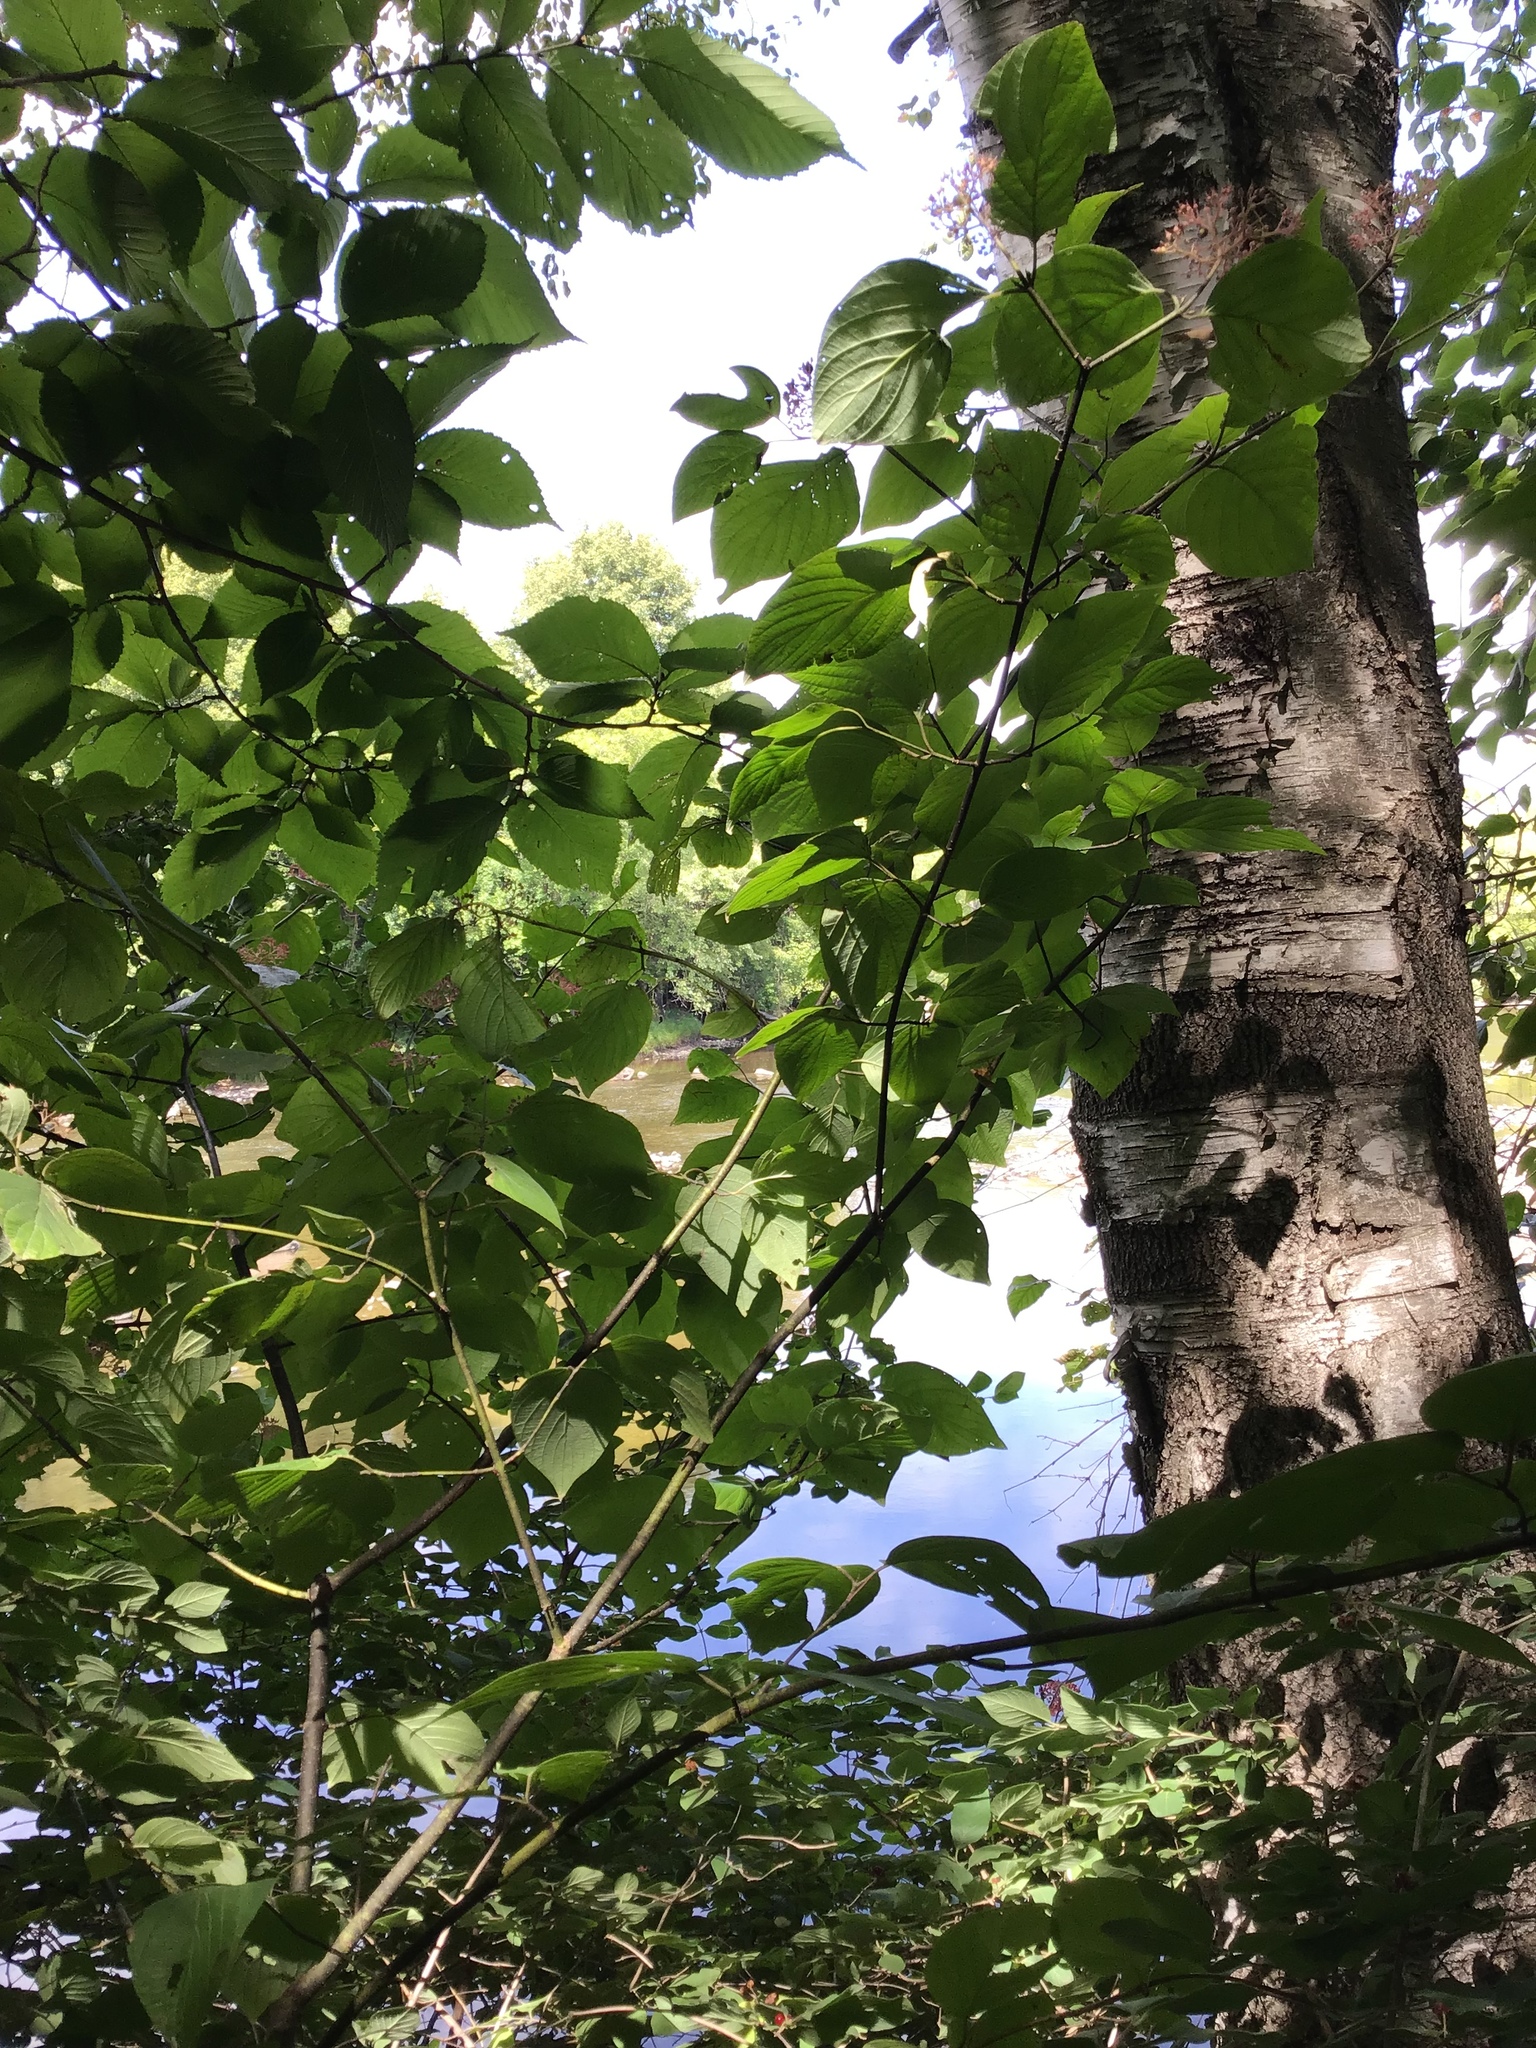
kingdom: Plantae
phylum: Tracheophyta
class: Magnoliopsida
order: Cornales
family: Cornaceae
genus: Cornus
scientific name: Cornus rugosa
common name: Round-leaf dogwood
